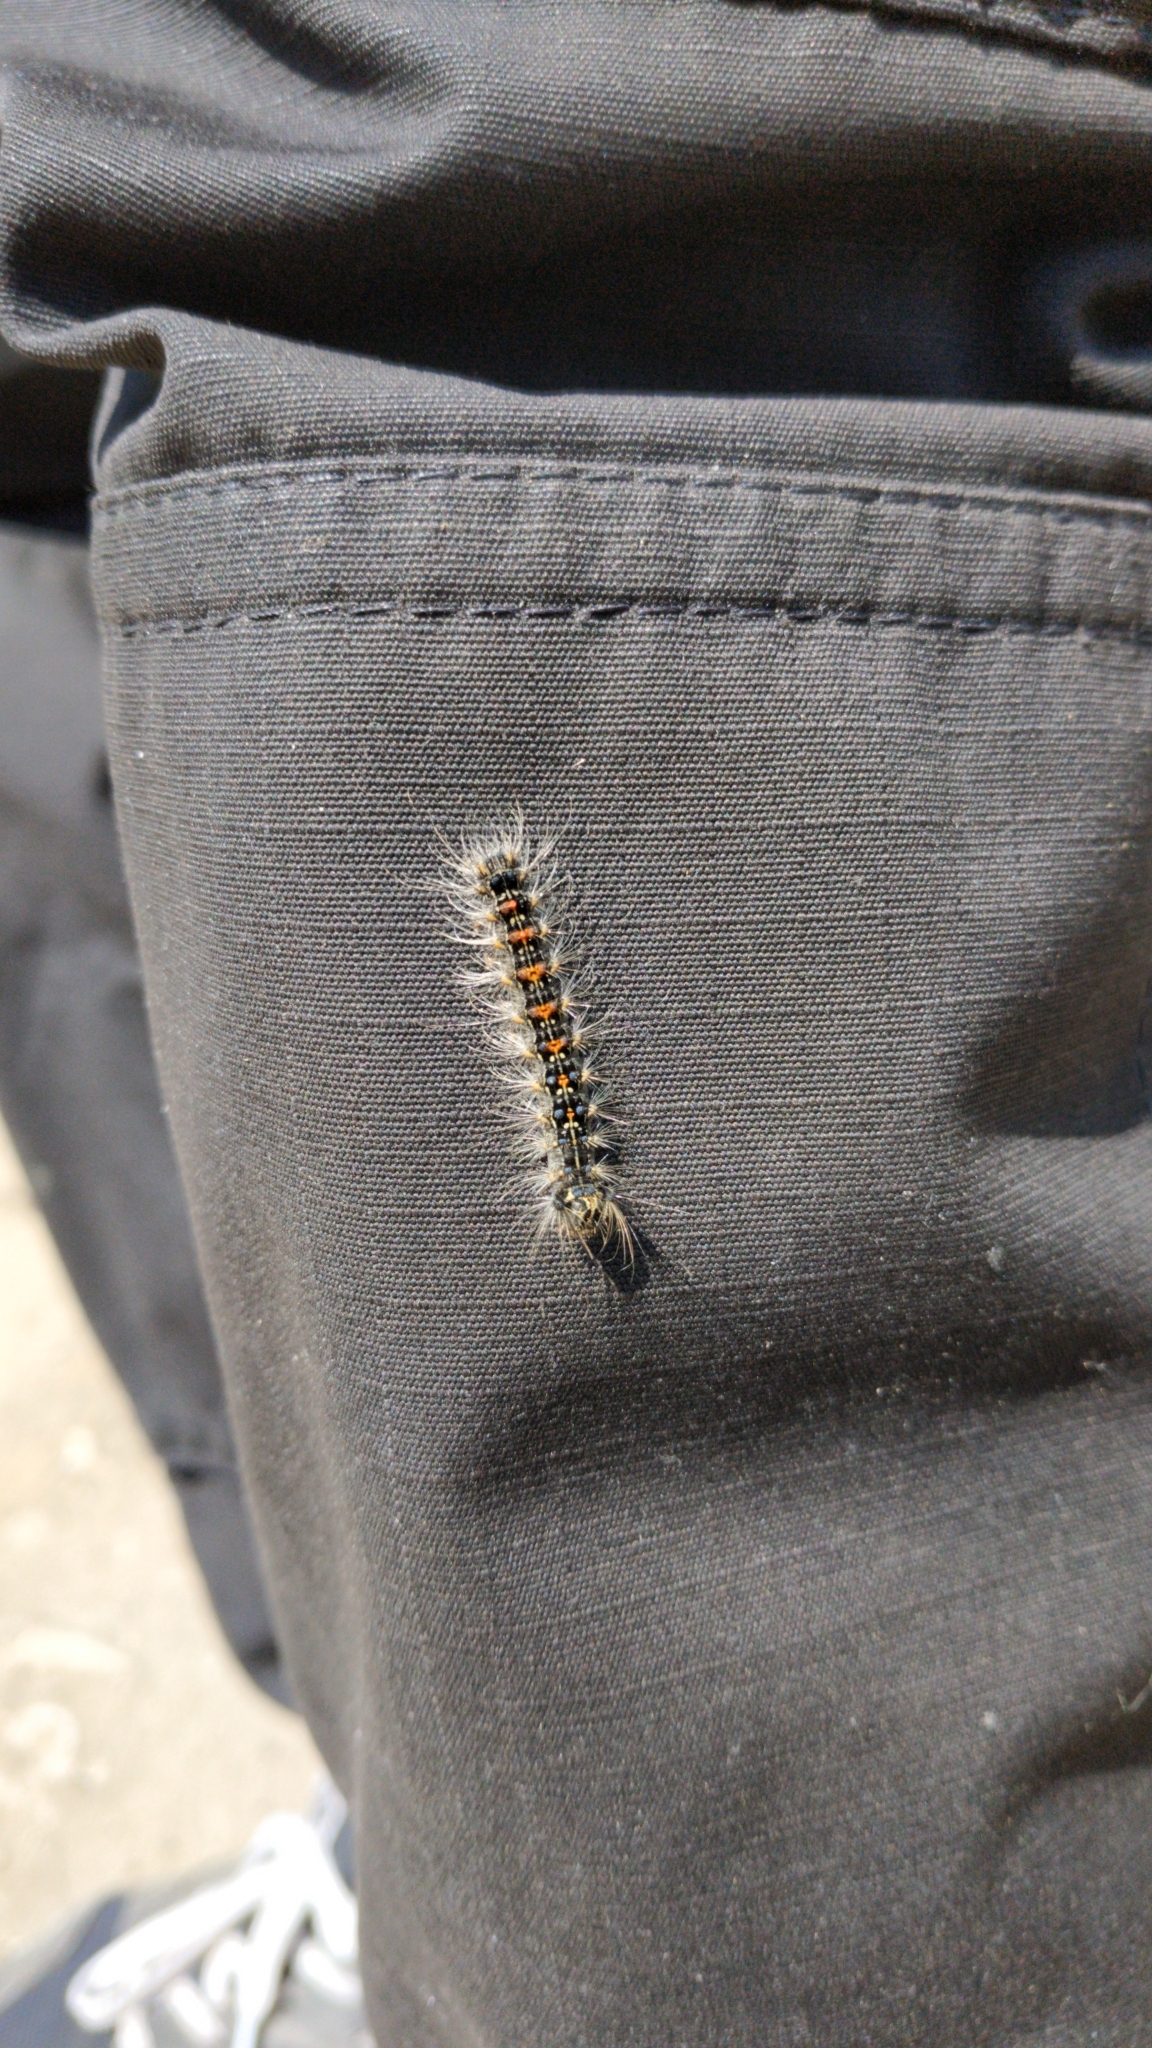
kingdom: Animalia
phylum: Arthropoda
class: Insecta
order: Lepidoptera
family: Erebidae
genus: Lymantria
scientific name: Lymantria dispar
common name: Gypsy moth
